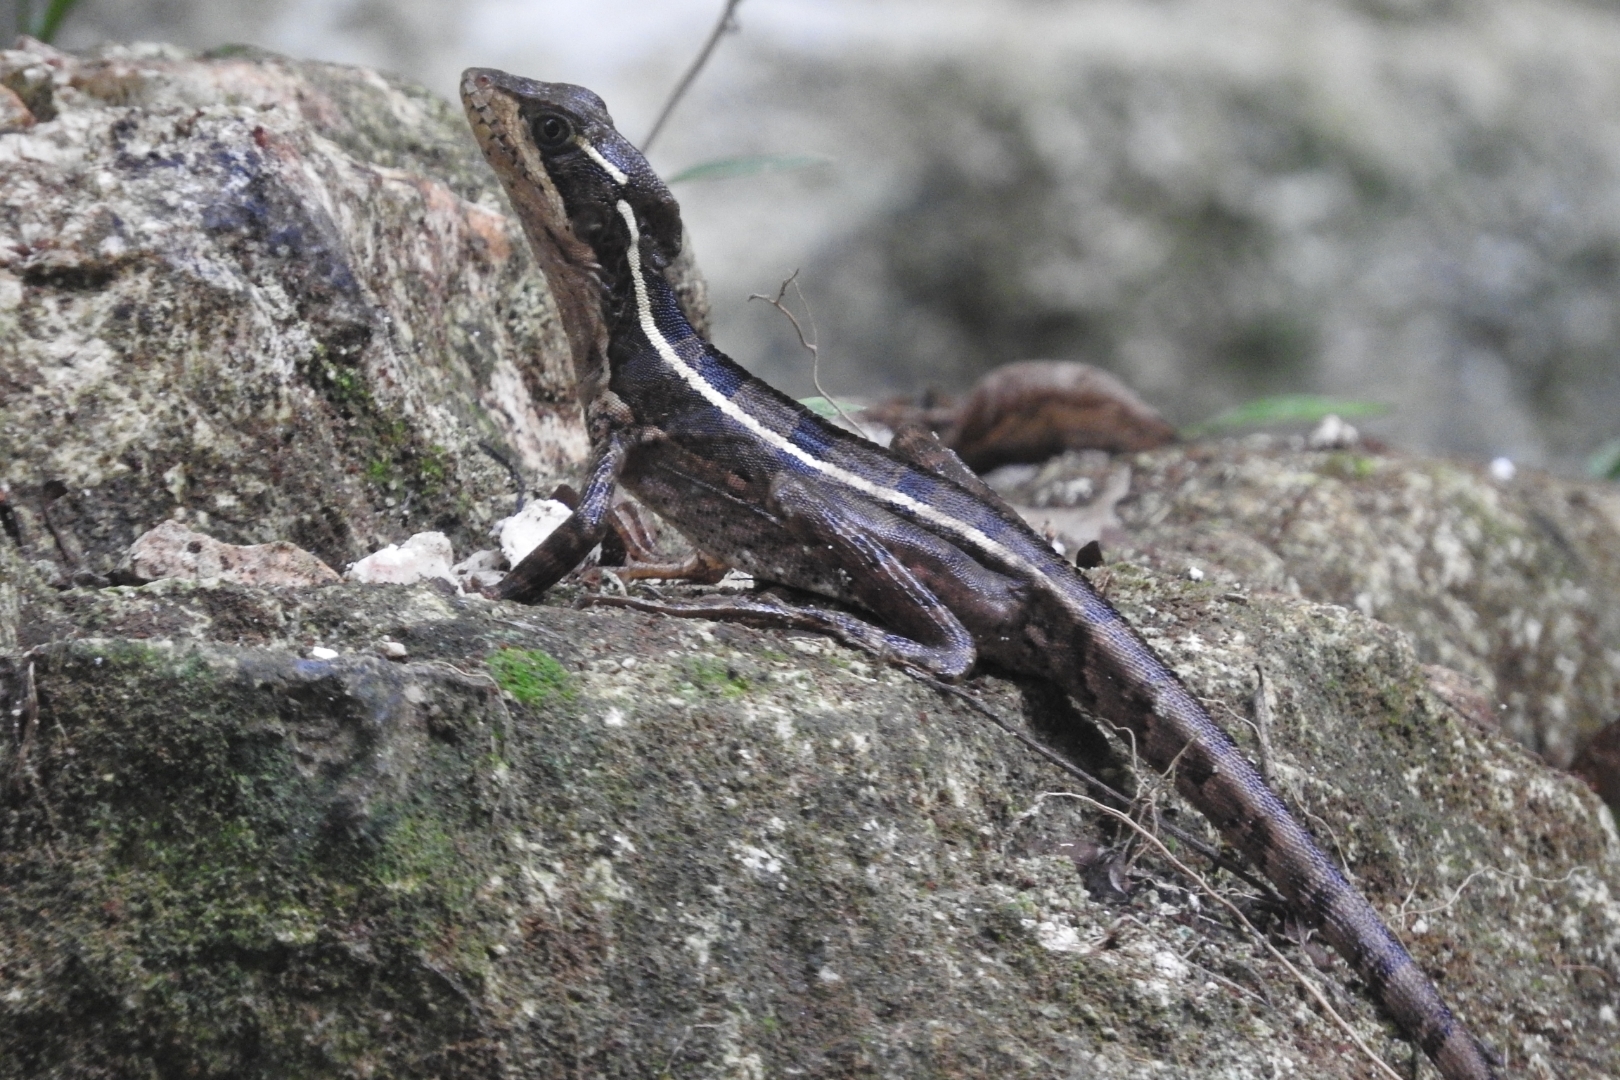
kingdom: Animalia
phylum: Chordata
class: Squamata
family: Corytophanidae
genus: Basiliscus
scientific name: Basiliscus vittatus
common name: Brown basilisk
